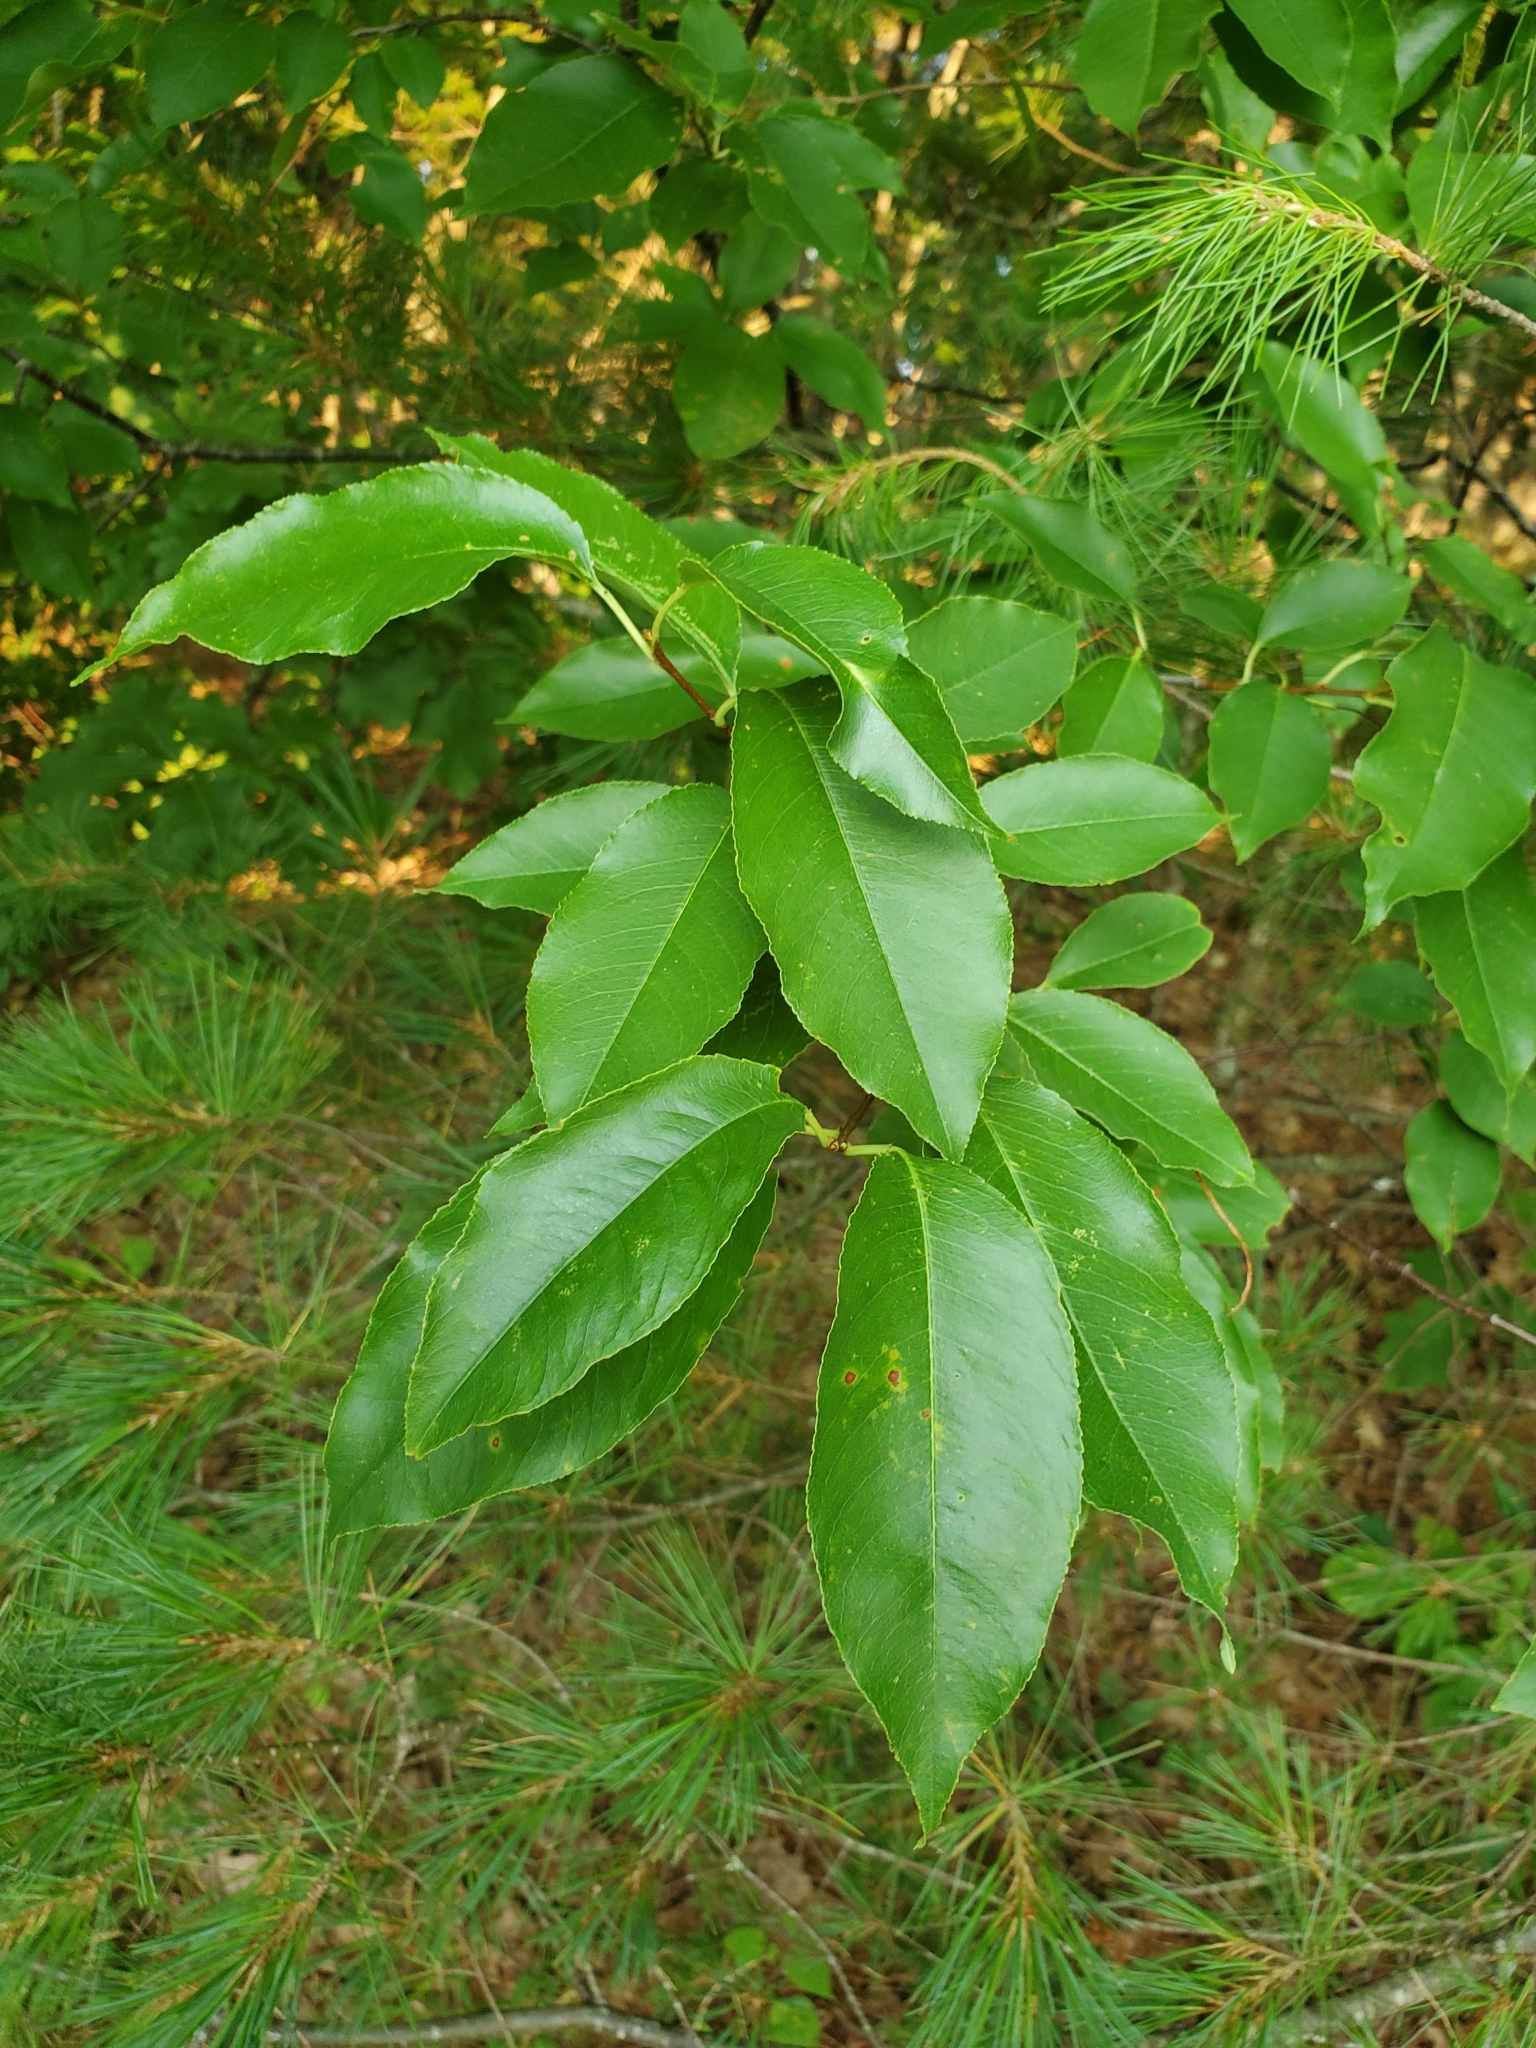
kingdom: Plantae
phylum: Tracheophyta
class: Magnoliopsida
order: Rosales
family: Rosaceae
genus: Prunus
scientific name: Prunus serotina
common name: Black cherry
